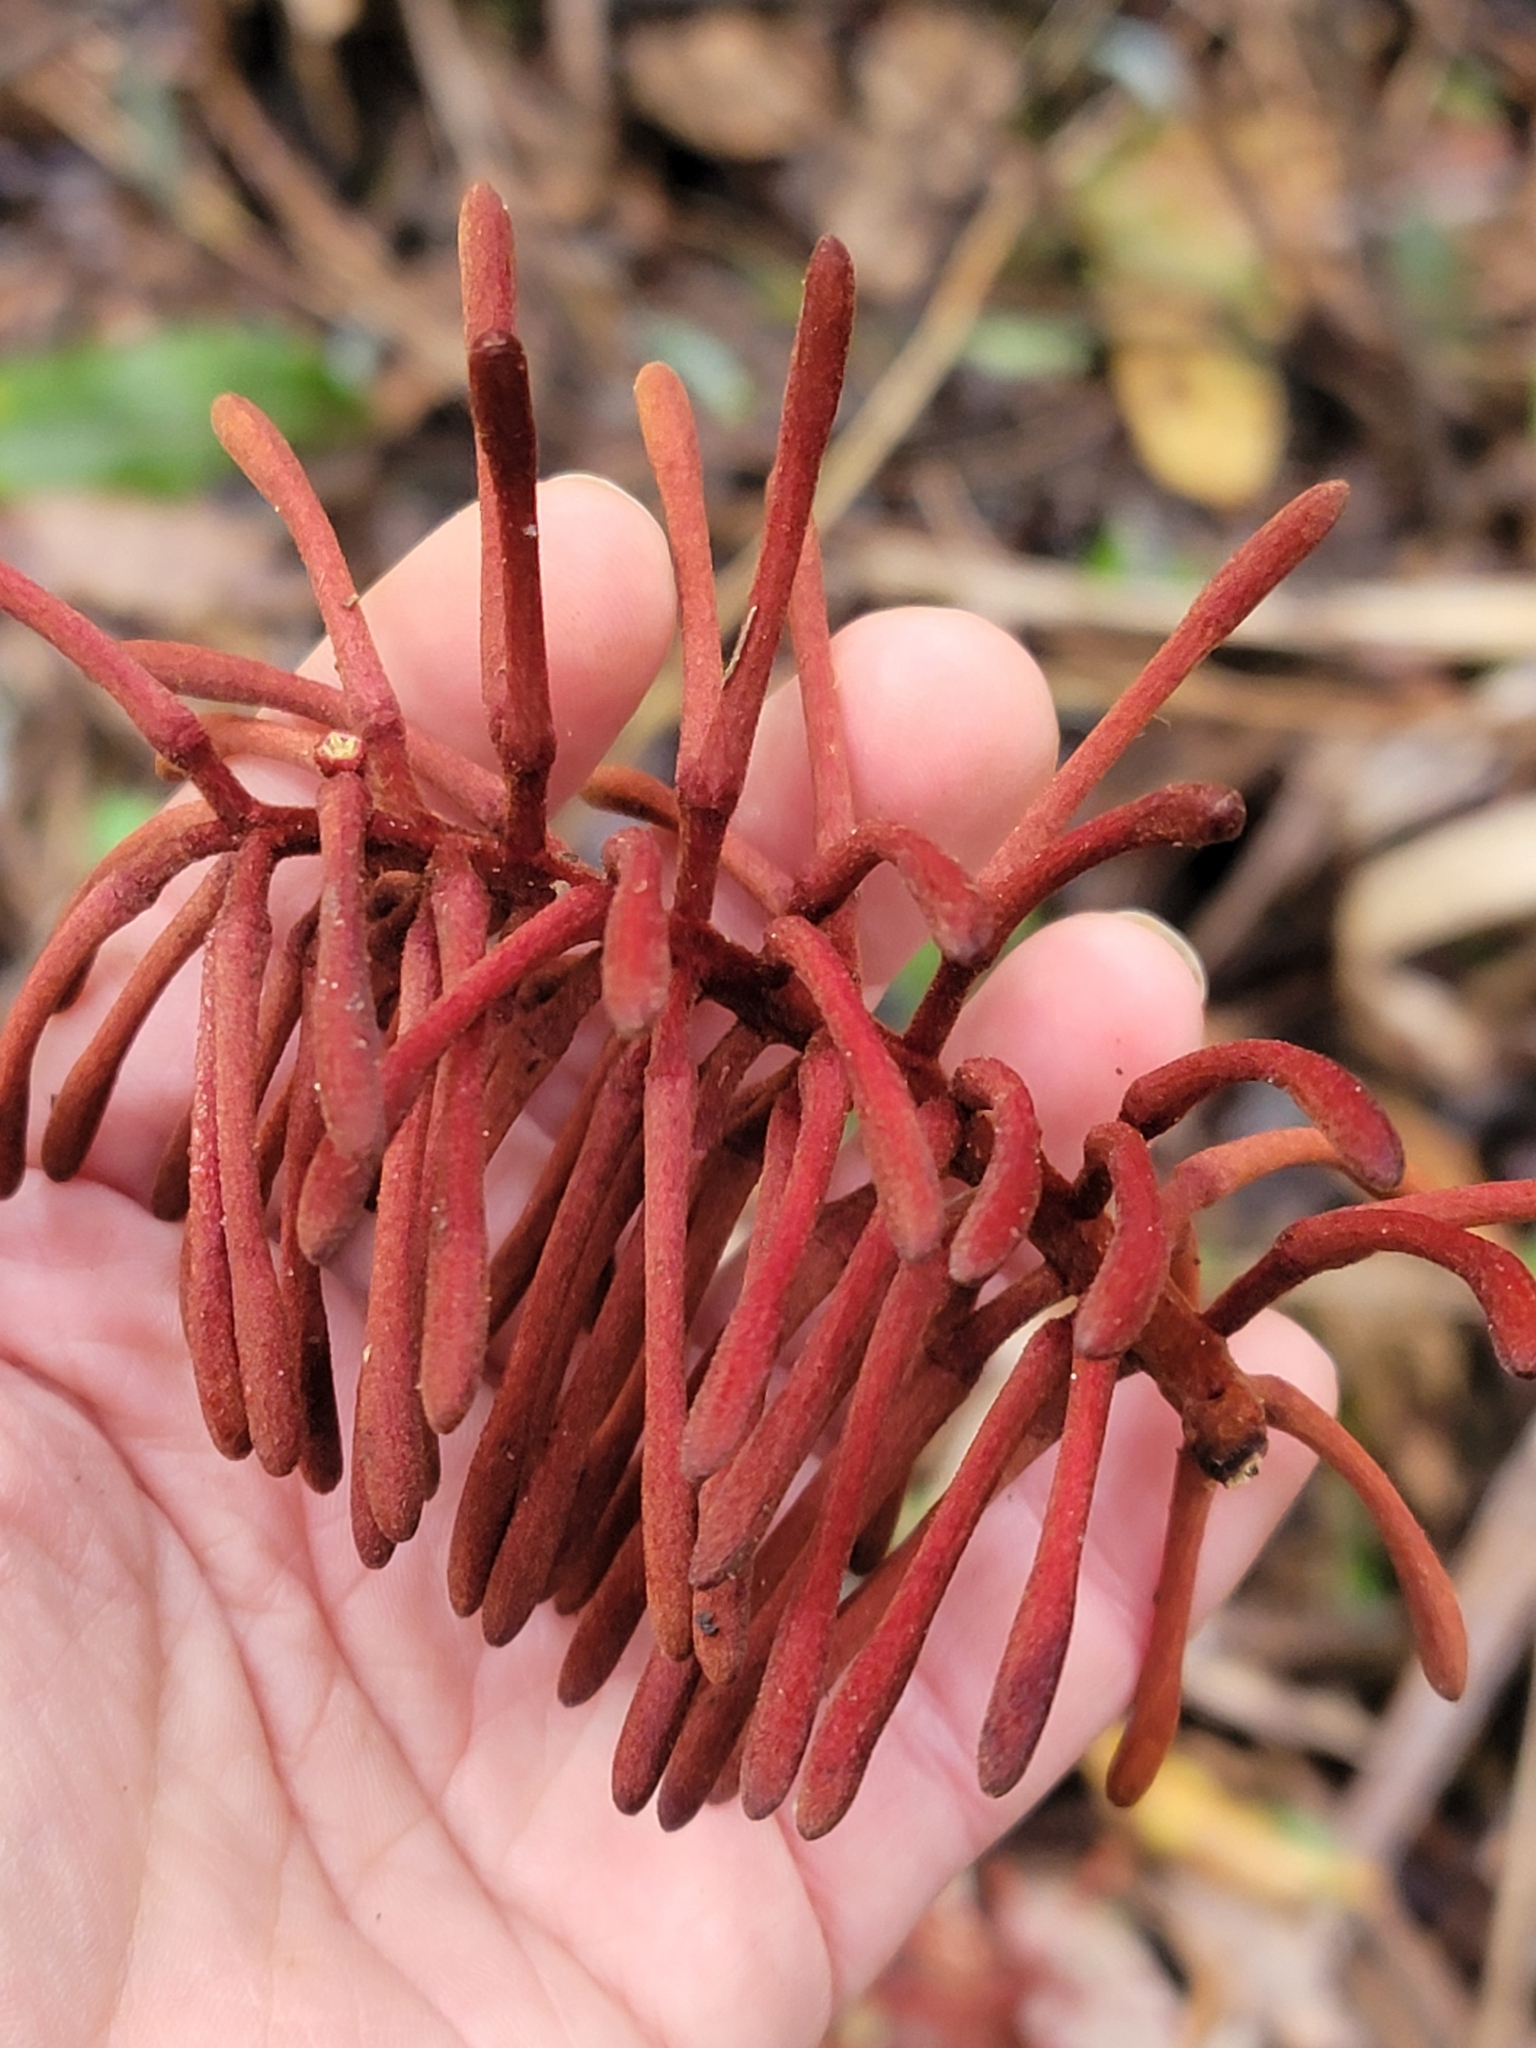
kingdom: Plantae
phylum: Tracheophyta
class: Magnoliopsida
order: Proteales
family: Proteaceae
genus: Knightia
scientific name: Knightia excelsa
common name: New zealand-honeysuckle
